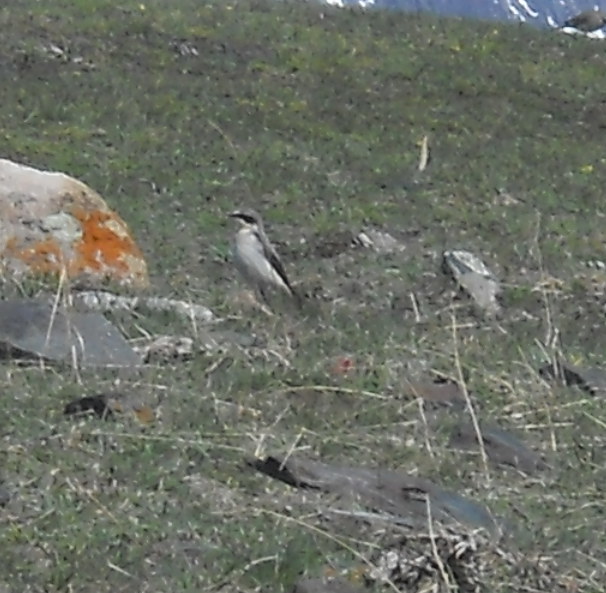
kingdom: Animalia
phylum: Chordata
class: Aves
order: Passeriformes
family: Muscicapidae
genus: Oenanthe
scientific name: Oenanthe oenanthe
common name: Northern wheatear
